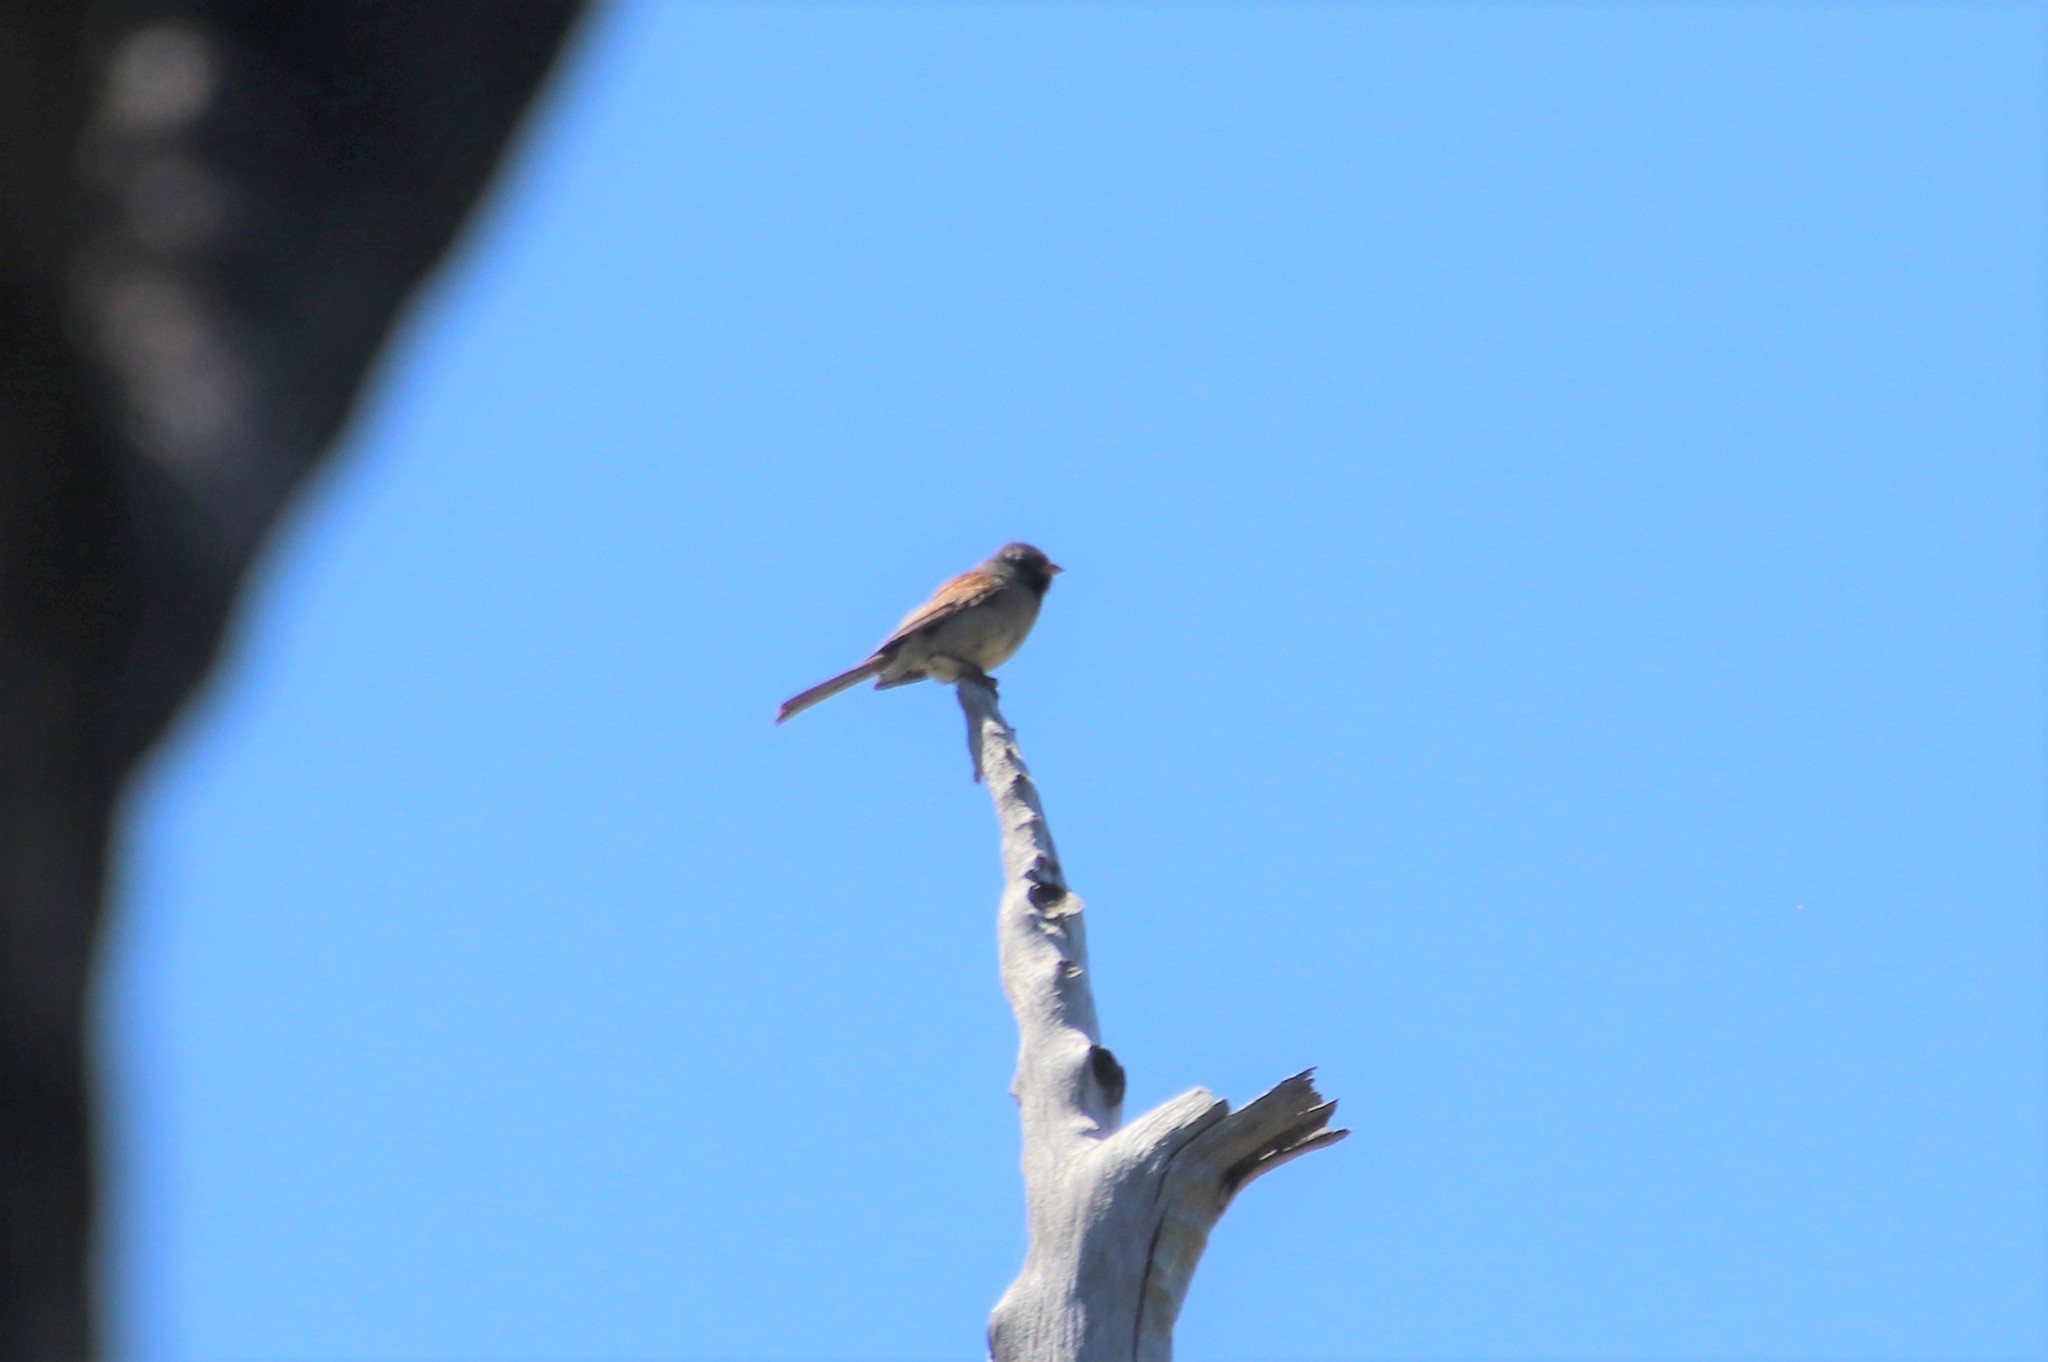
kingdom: Animalia
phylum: Chordata
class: Aves
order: Passeriformes
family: Passerellidae
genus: Spizella
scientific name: Spizella atrogularis
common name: Black-chinned sparrow
